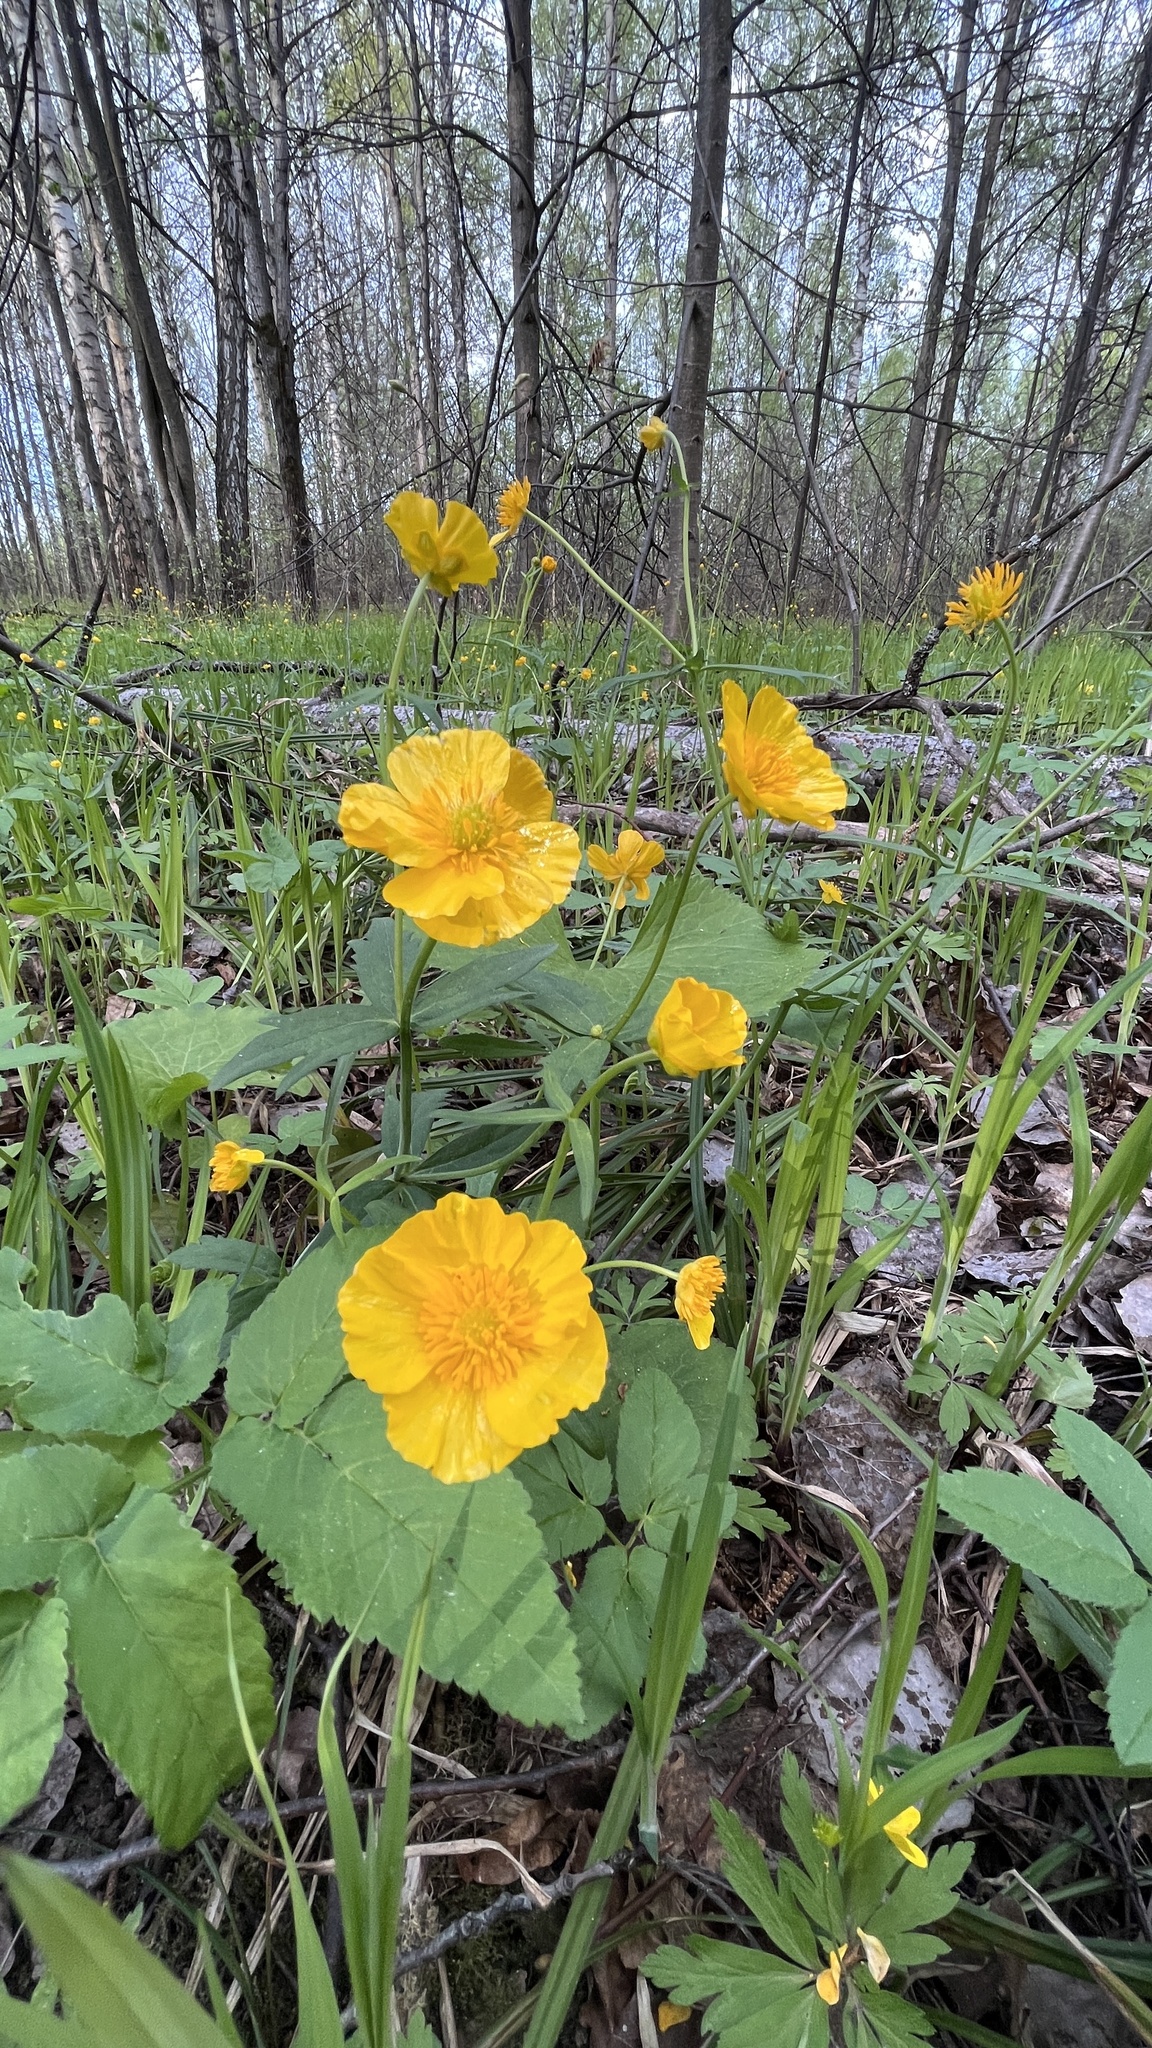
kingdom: Plantae
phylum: Tracheophyta
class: Magnoliopsida
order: Ranunculales
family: Ranunculaceae
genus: Ranunculus
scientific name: Ranunculus cassubicus
